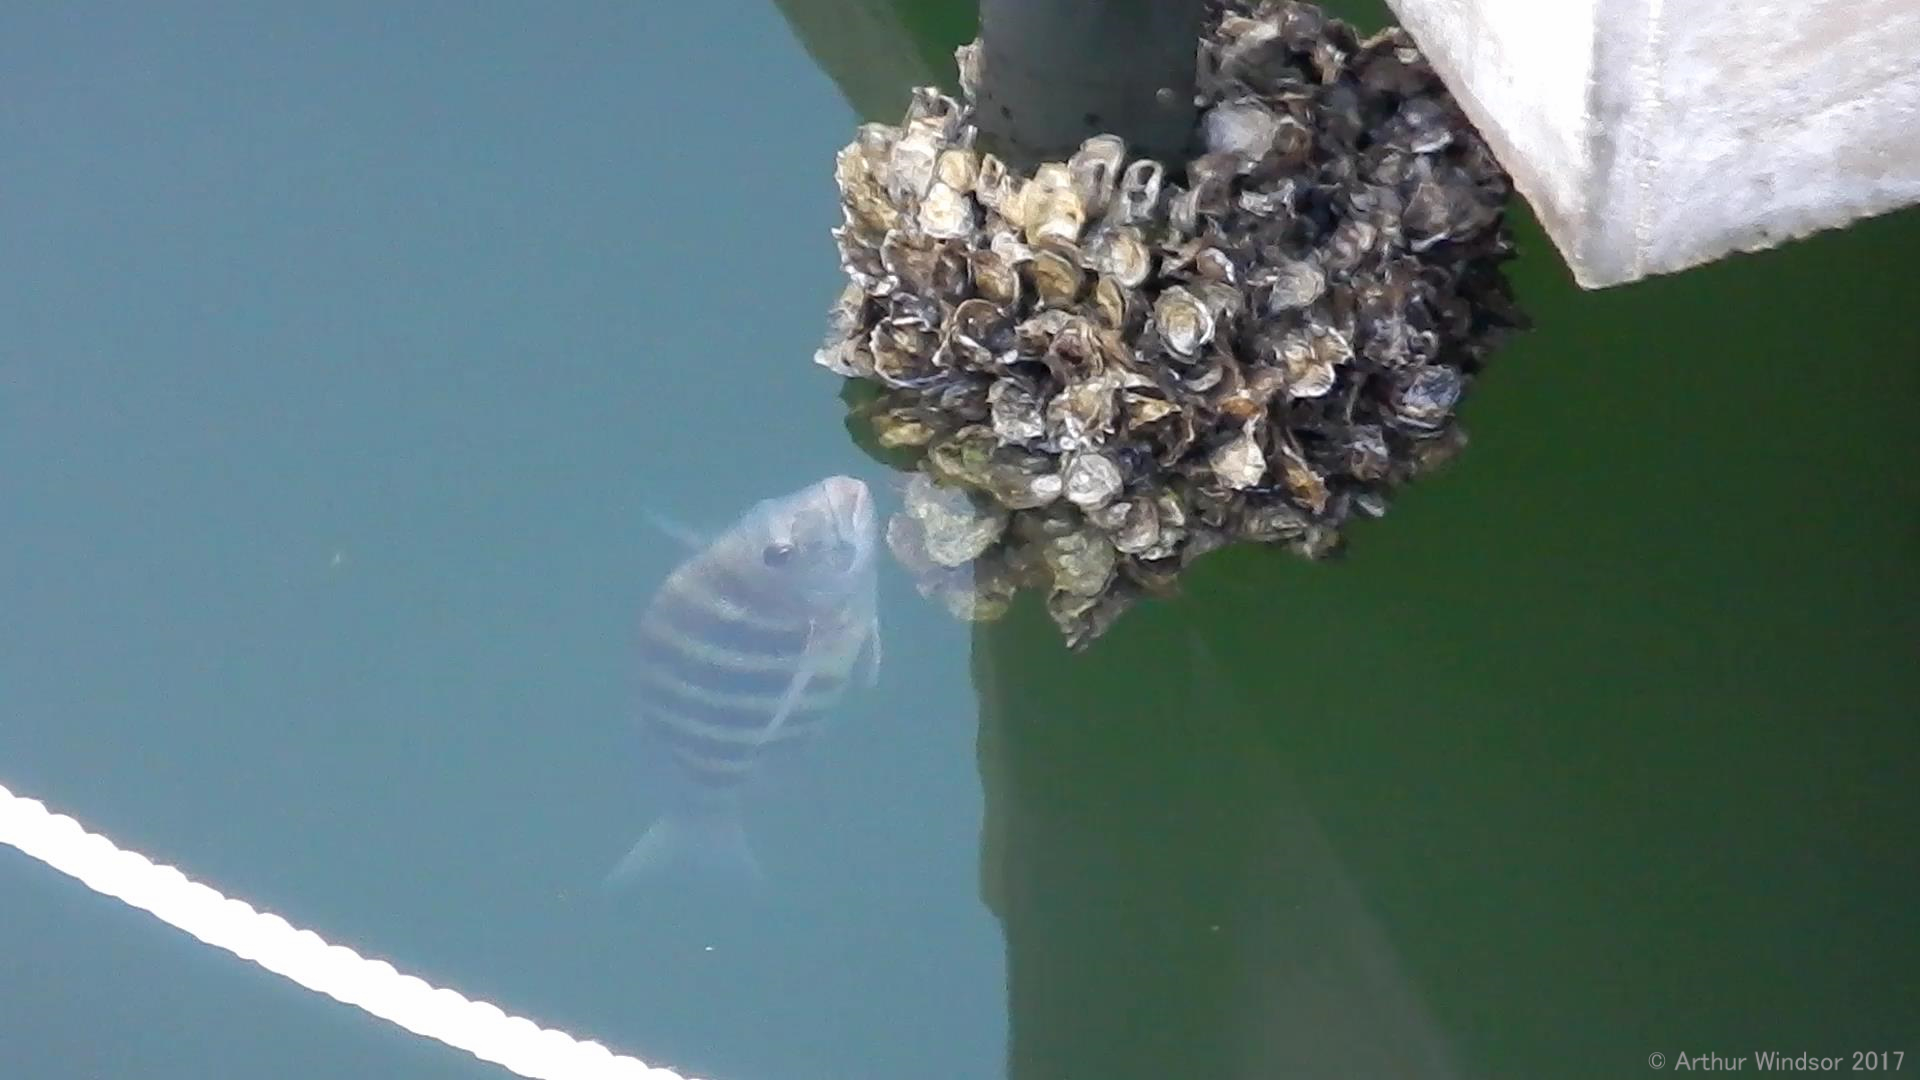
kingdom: Animalia
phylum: Chordata
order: Perciformes
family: Sparidae
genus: Archosargus
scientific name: Archosargus probatocephalus
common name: Sheepshead
